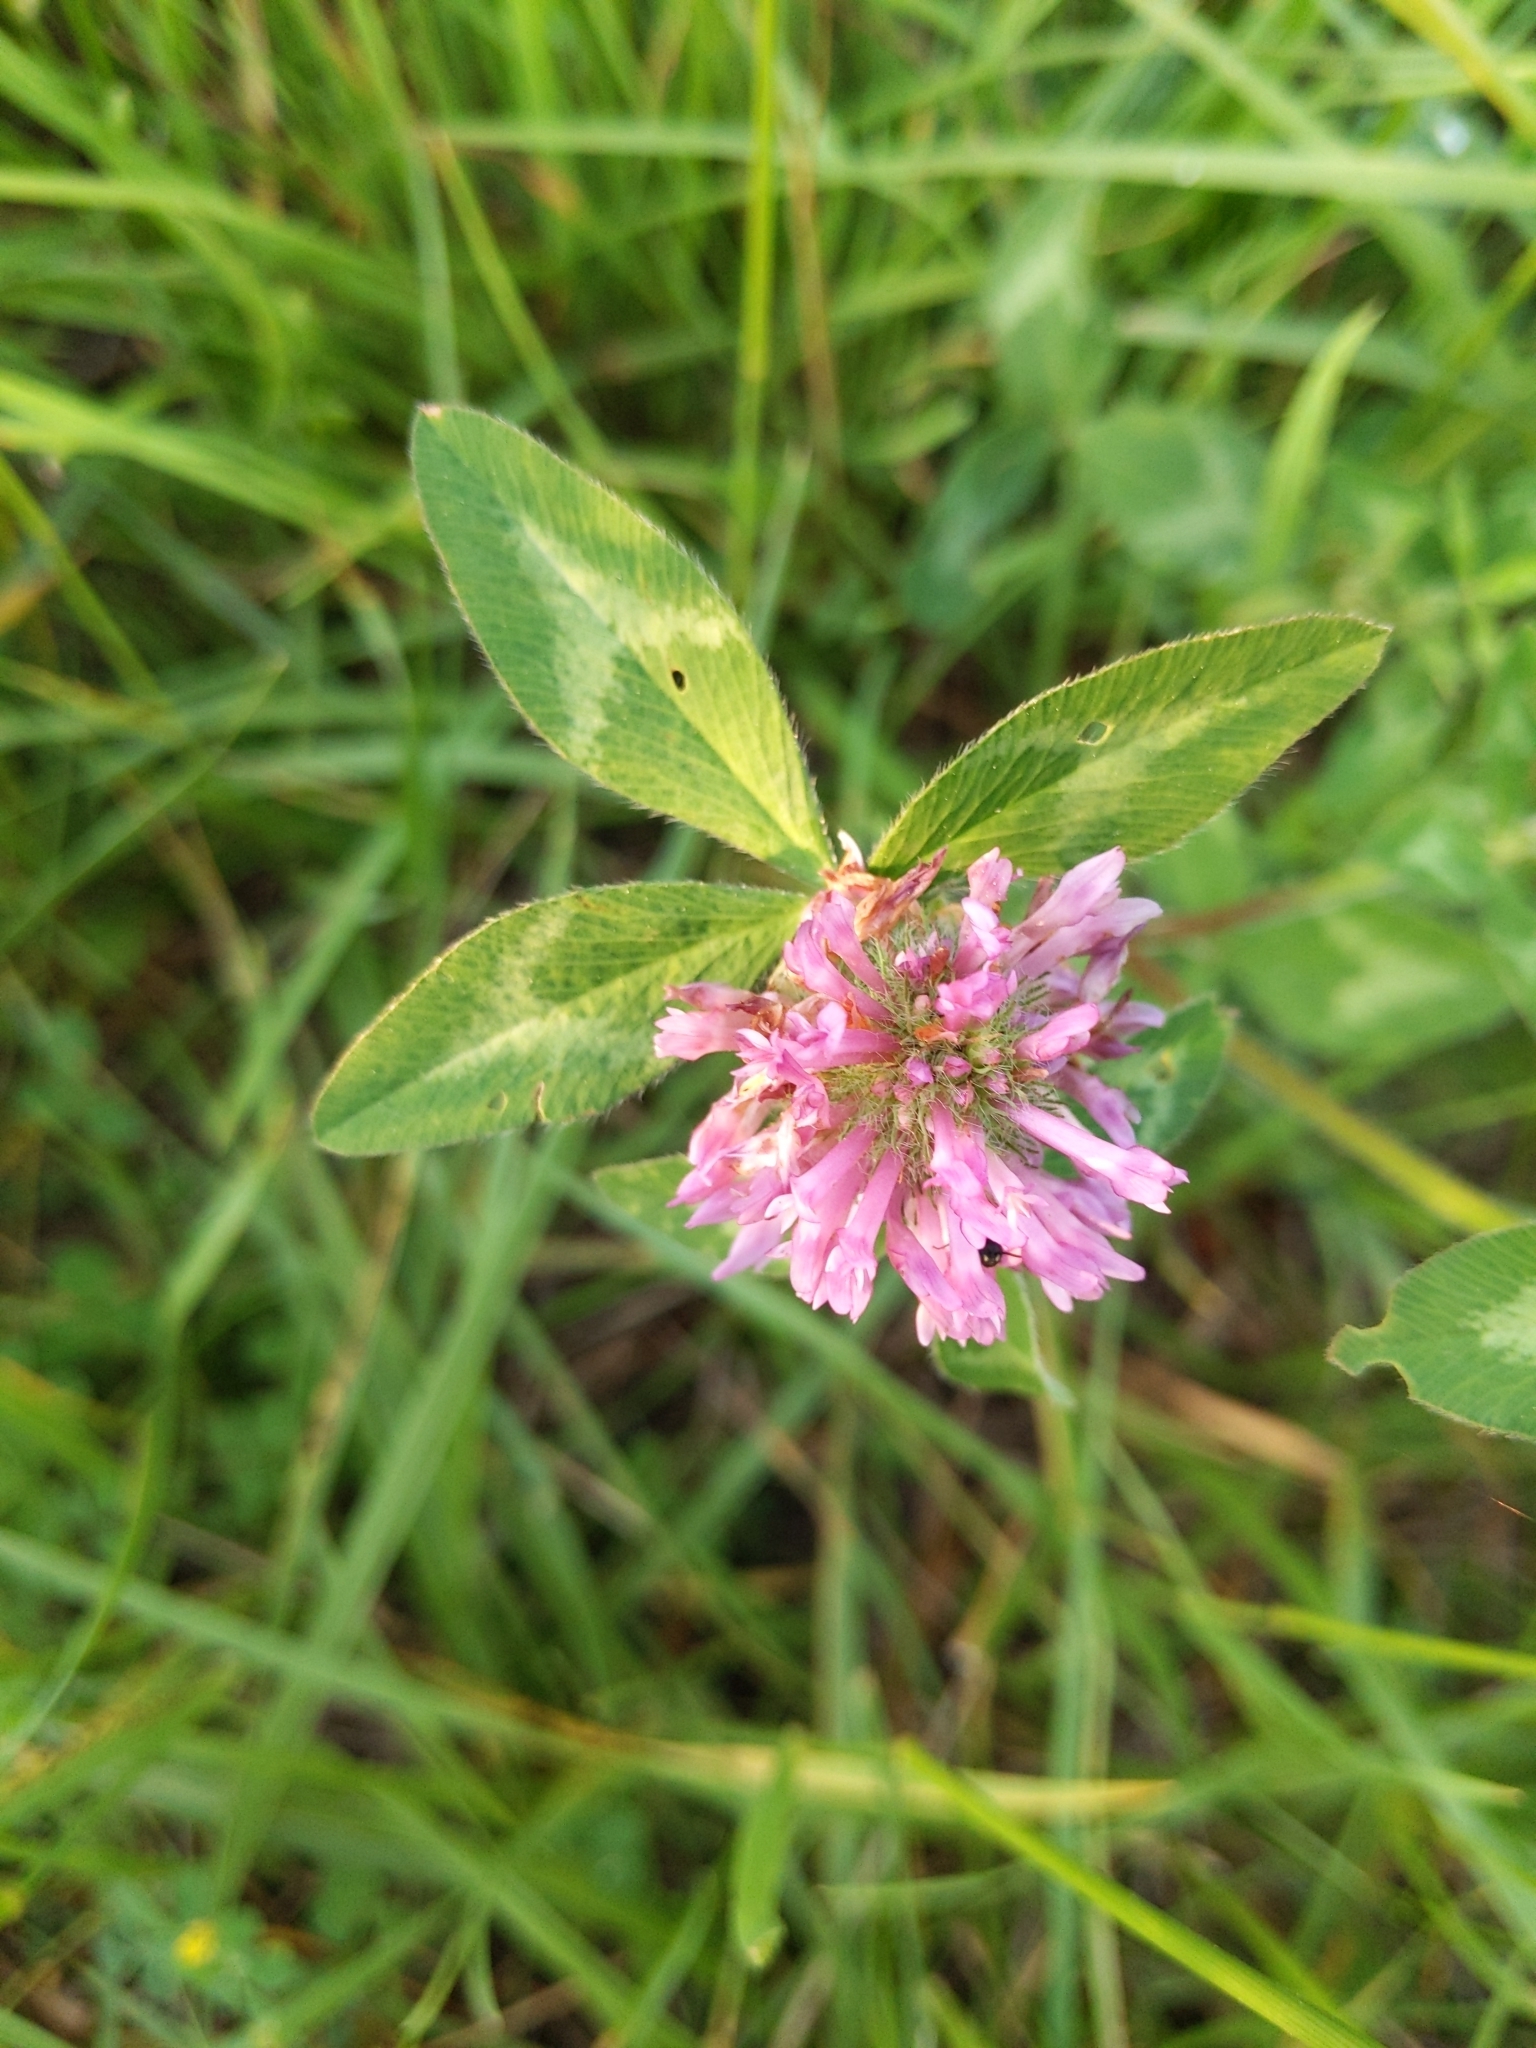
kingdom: Plantae
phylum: Tracheophyta
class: Magnoliopsida
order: Fabales
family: Fabaceae
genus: Trifolium
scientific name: Trifolium pratense
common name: Red clover
